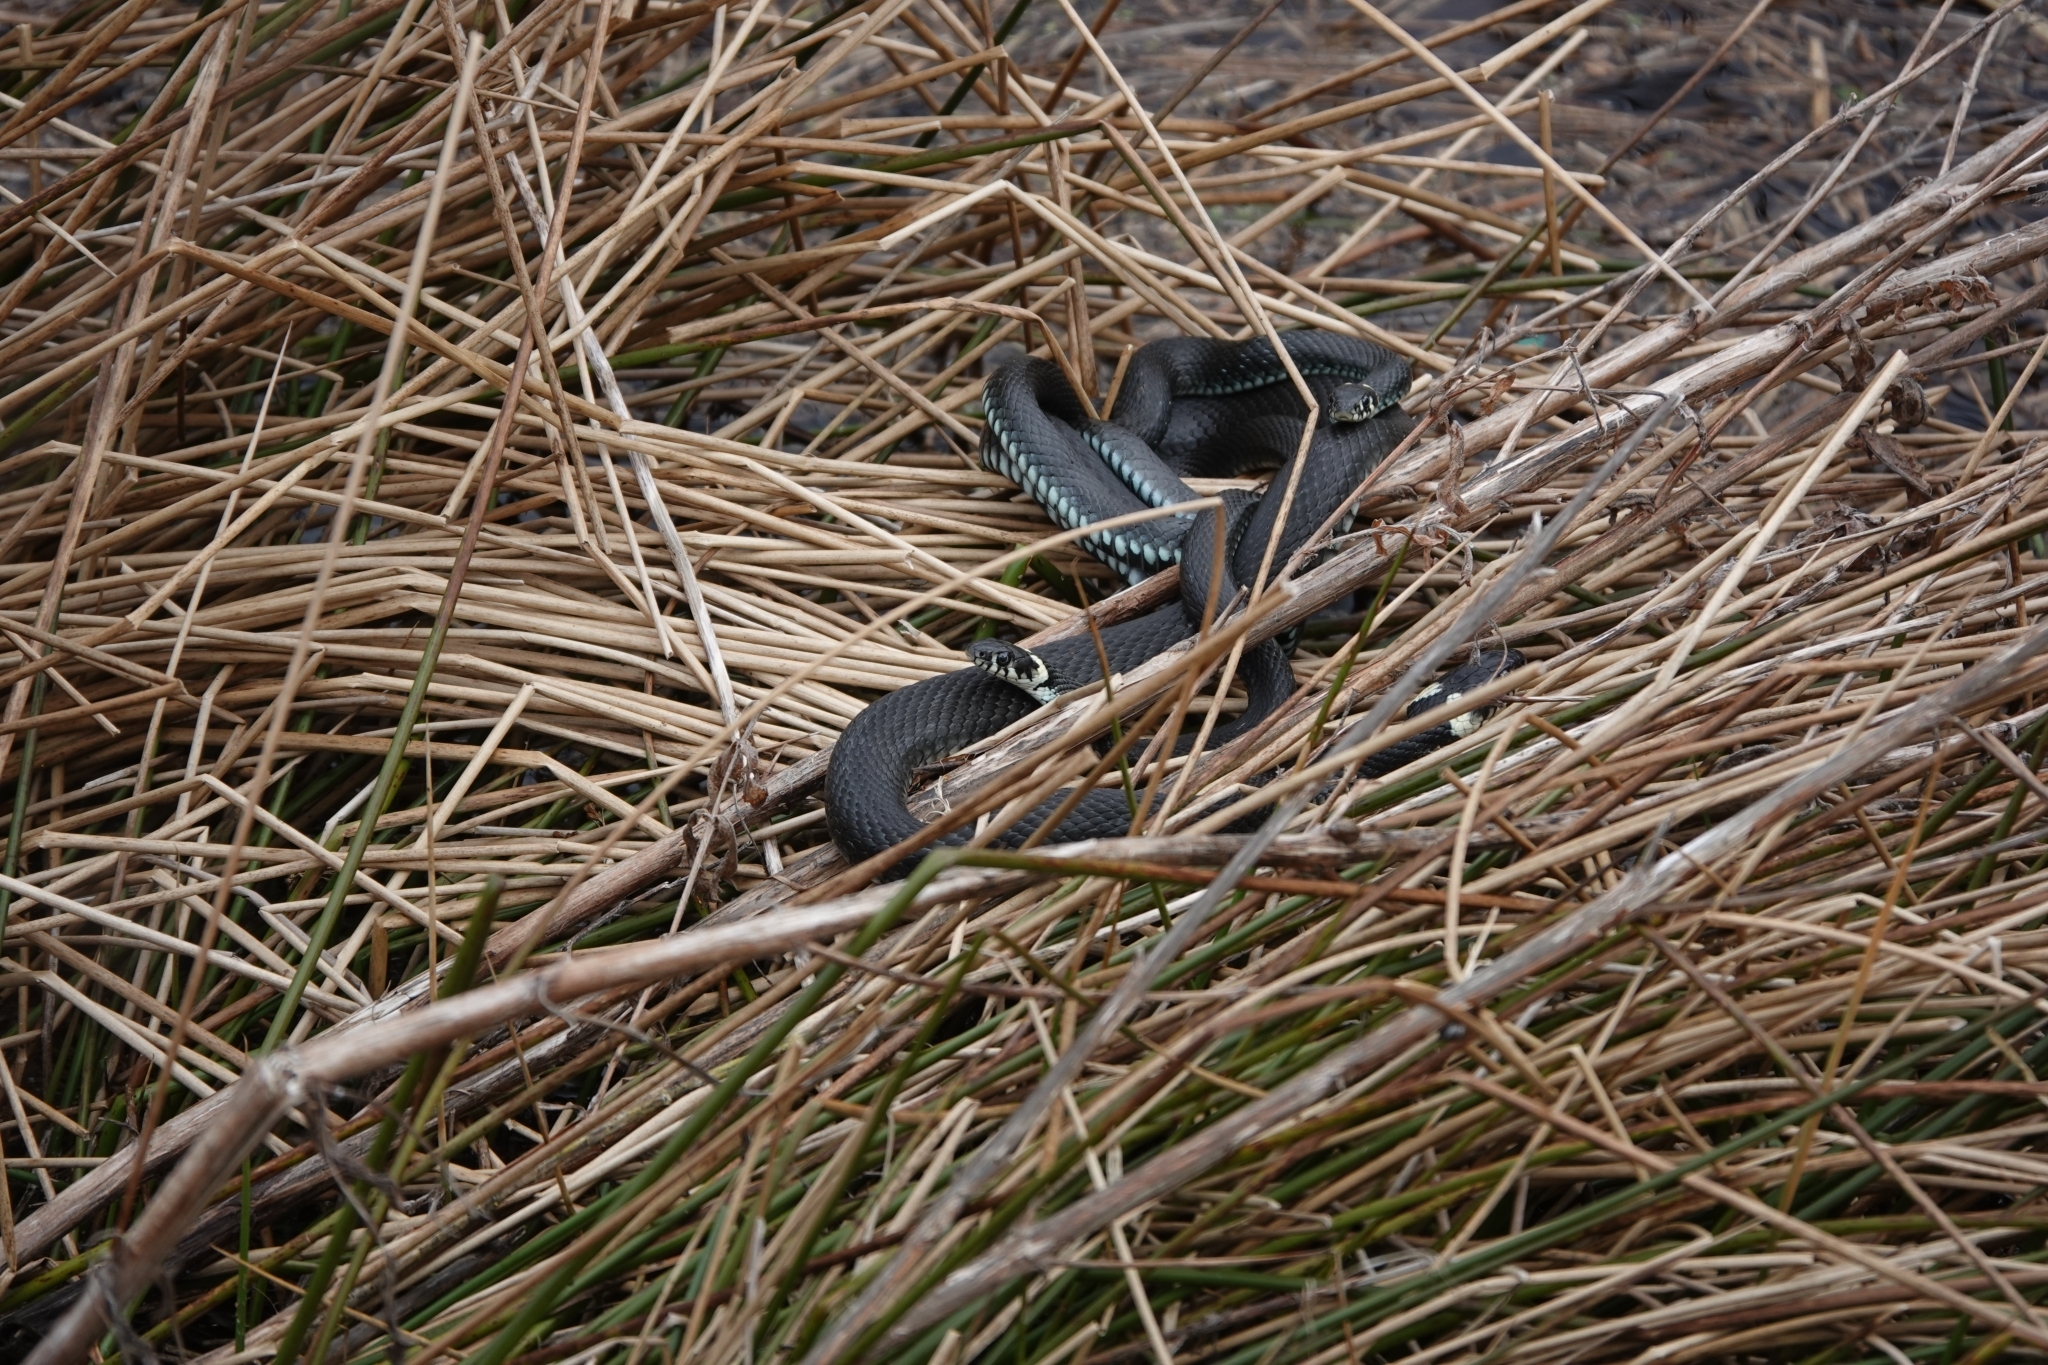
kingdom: Animalia
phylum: Chordata
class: Squamata
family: Colubridae
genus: Natrix
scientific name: Natrix natrix
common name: Grass snake
